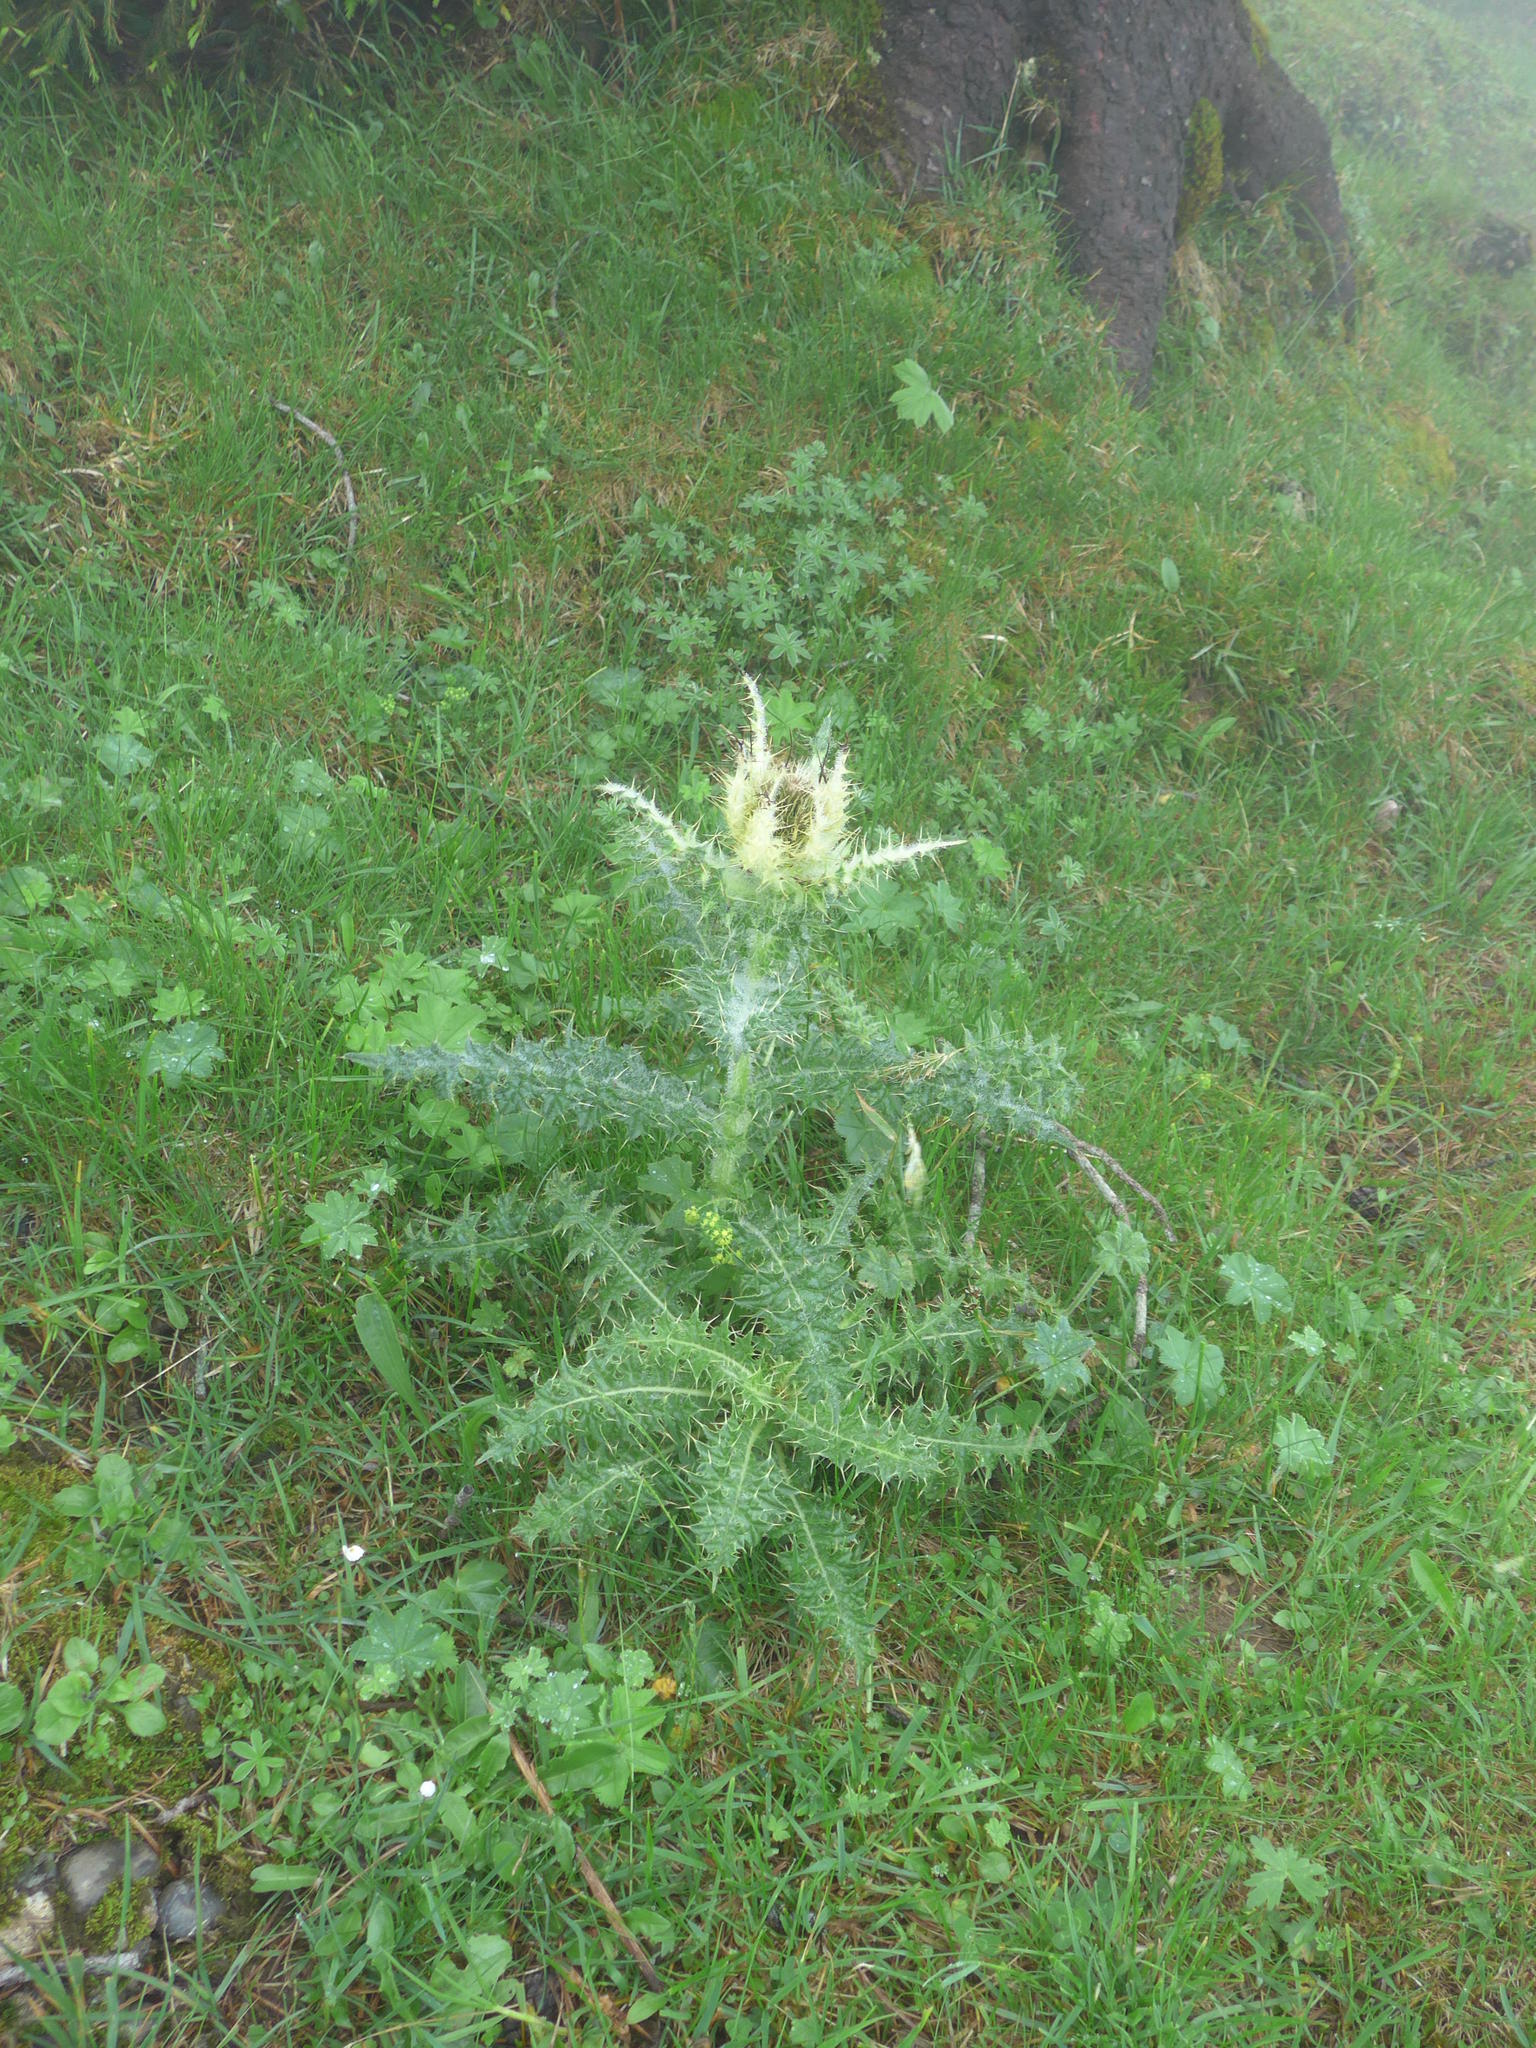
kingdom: Plantae
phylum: Tracheophyta
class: Magnoliopsida
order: Asterales
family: Asteraceae
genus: Cirsium
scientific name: Cirsium spinosissimum
